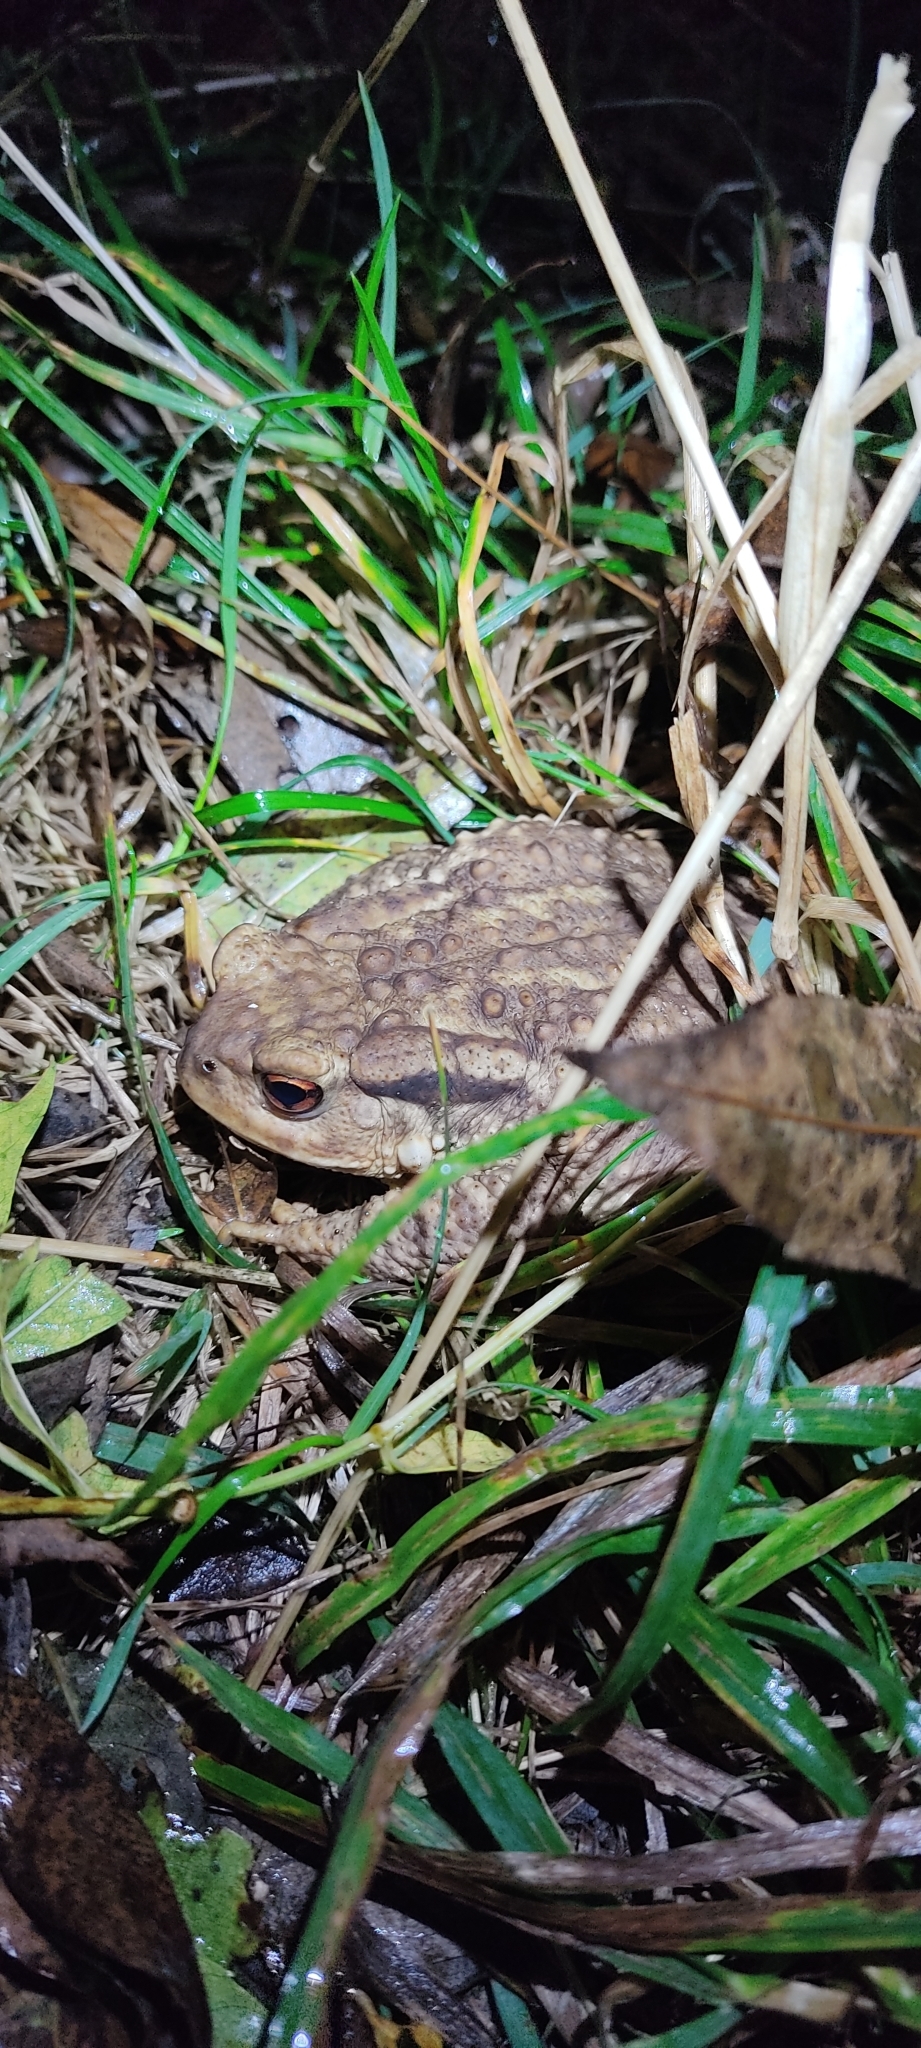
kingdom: Animalia
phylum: Chordata
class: Amphibia
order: Anura
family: Bufonidae
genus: Bufo
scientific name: Bufo spinosus
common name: Western common toad
